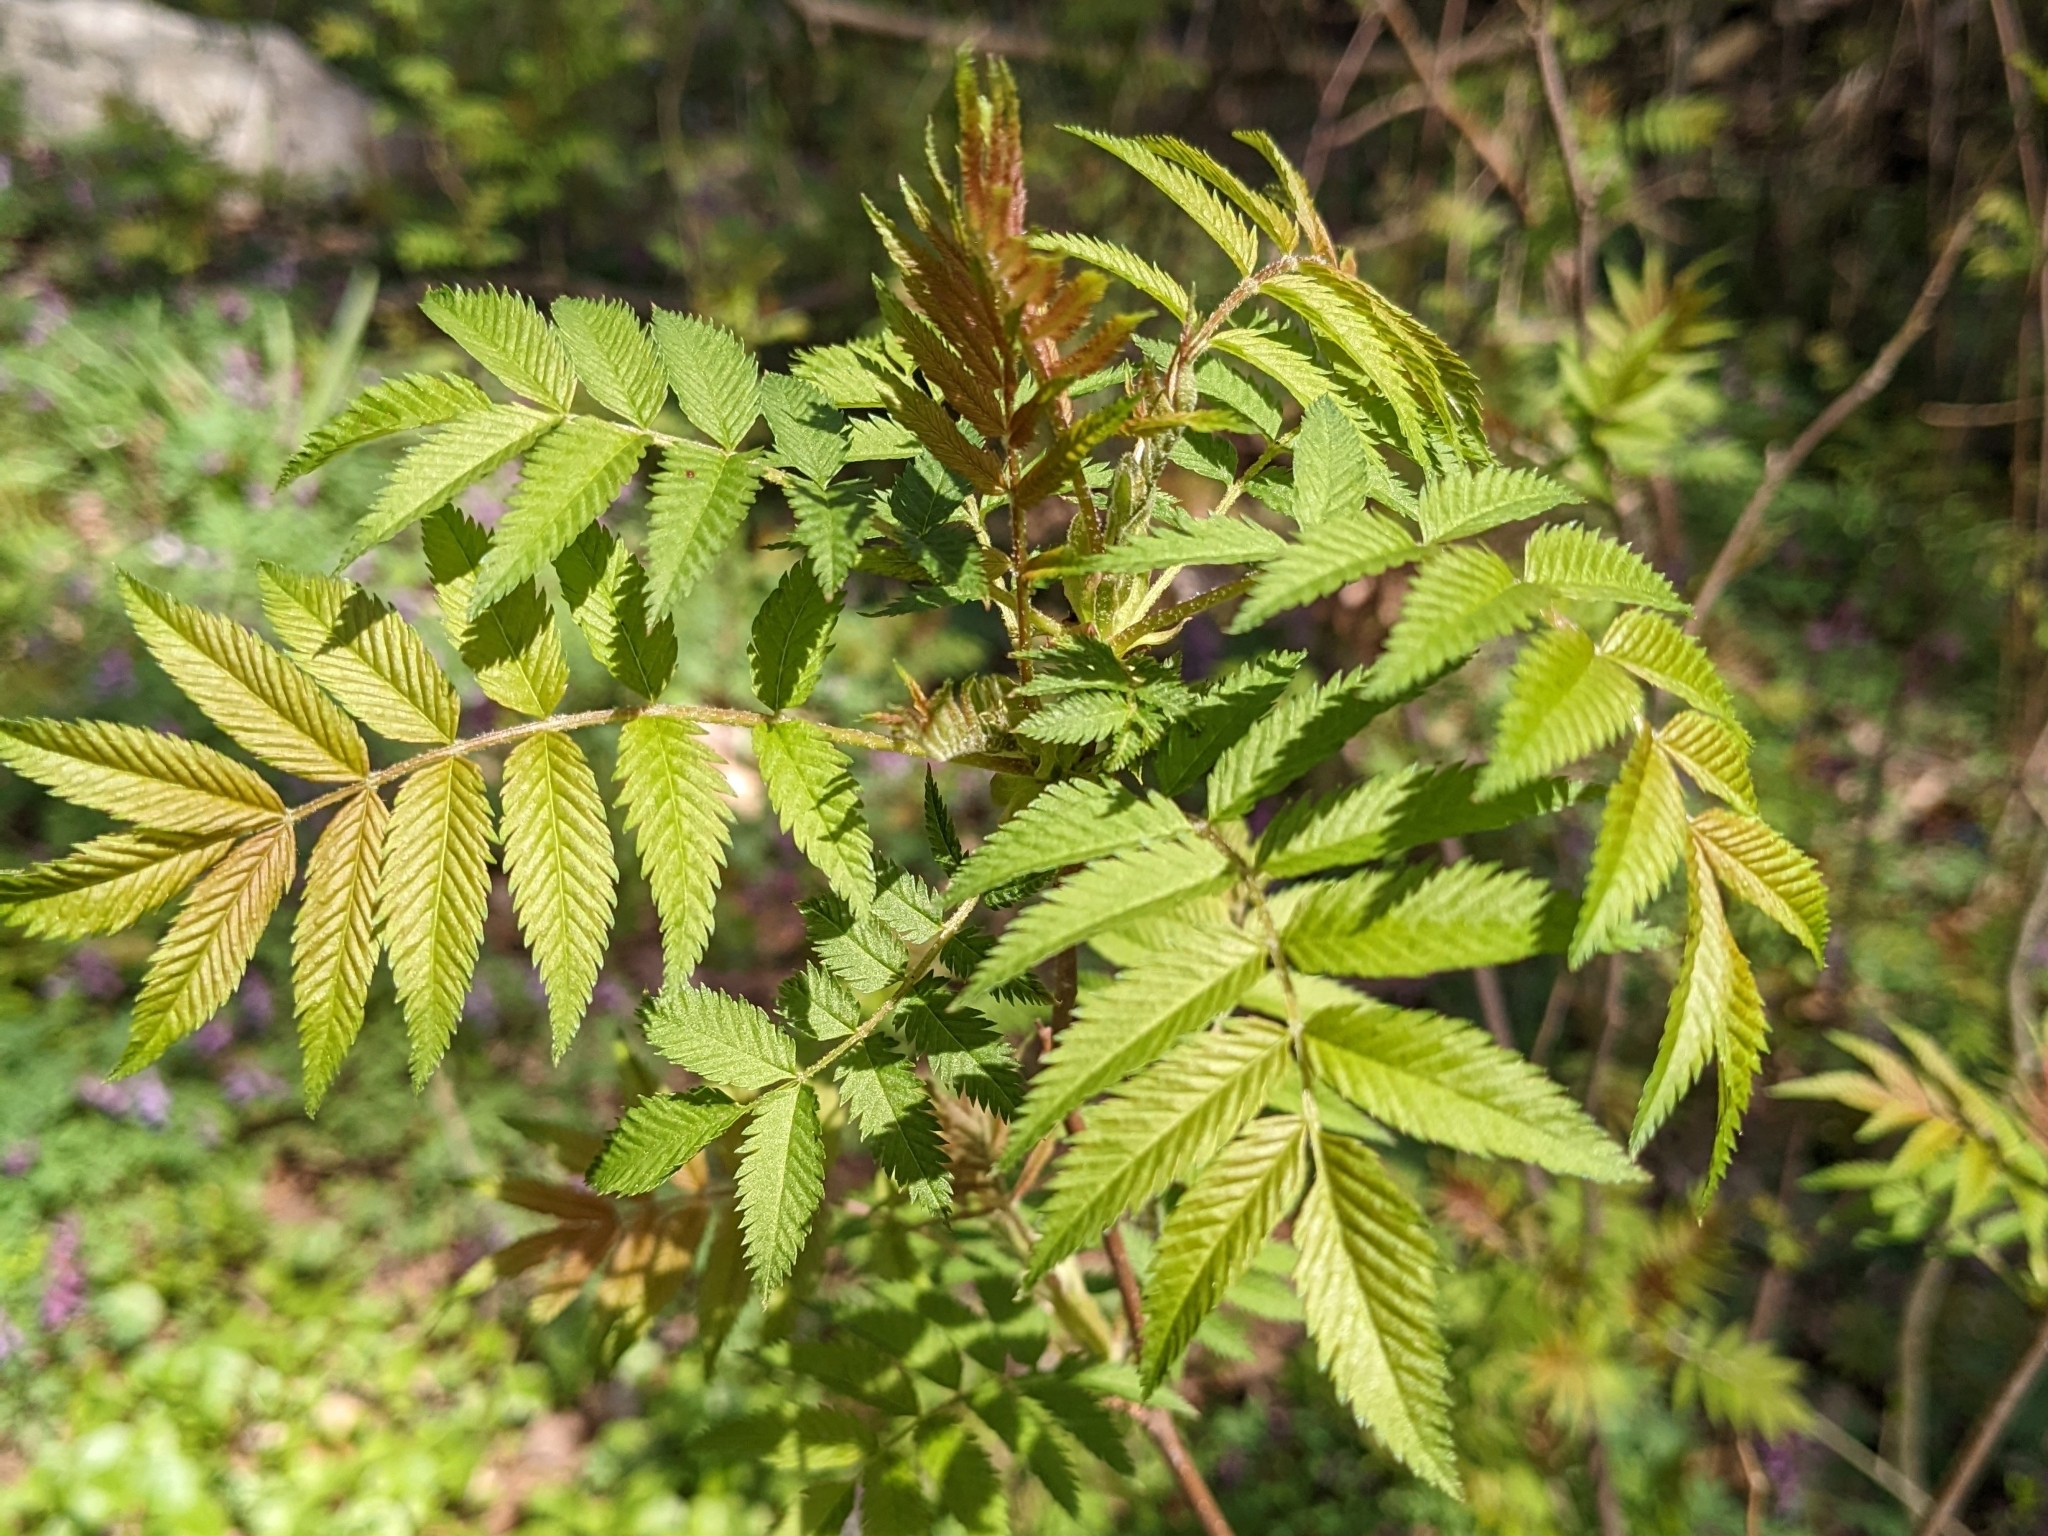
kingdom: Plantae
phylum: Tracheophyta
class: Magnoliopsida
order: Rosales
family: Rosaceae
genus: Sorbaria
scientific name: Sorbaria sorbifolia
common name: False spiraea
